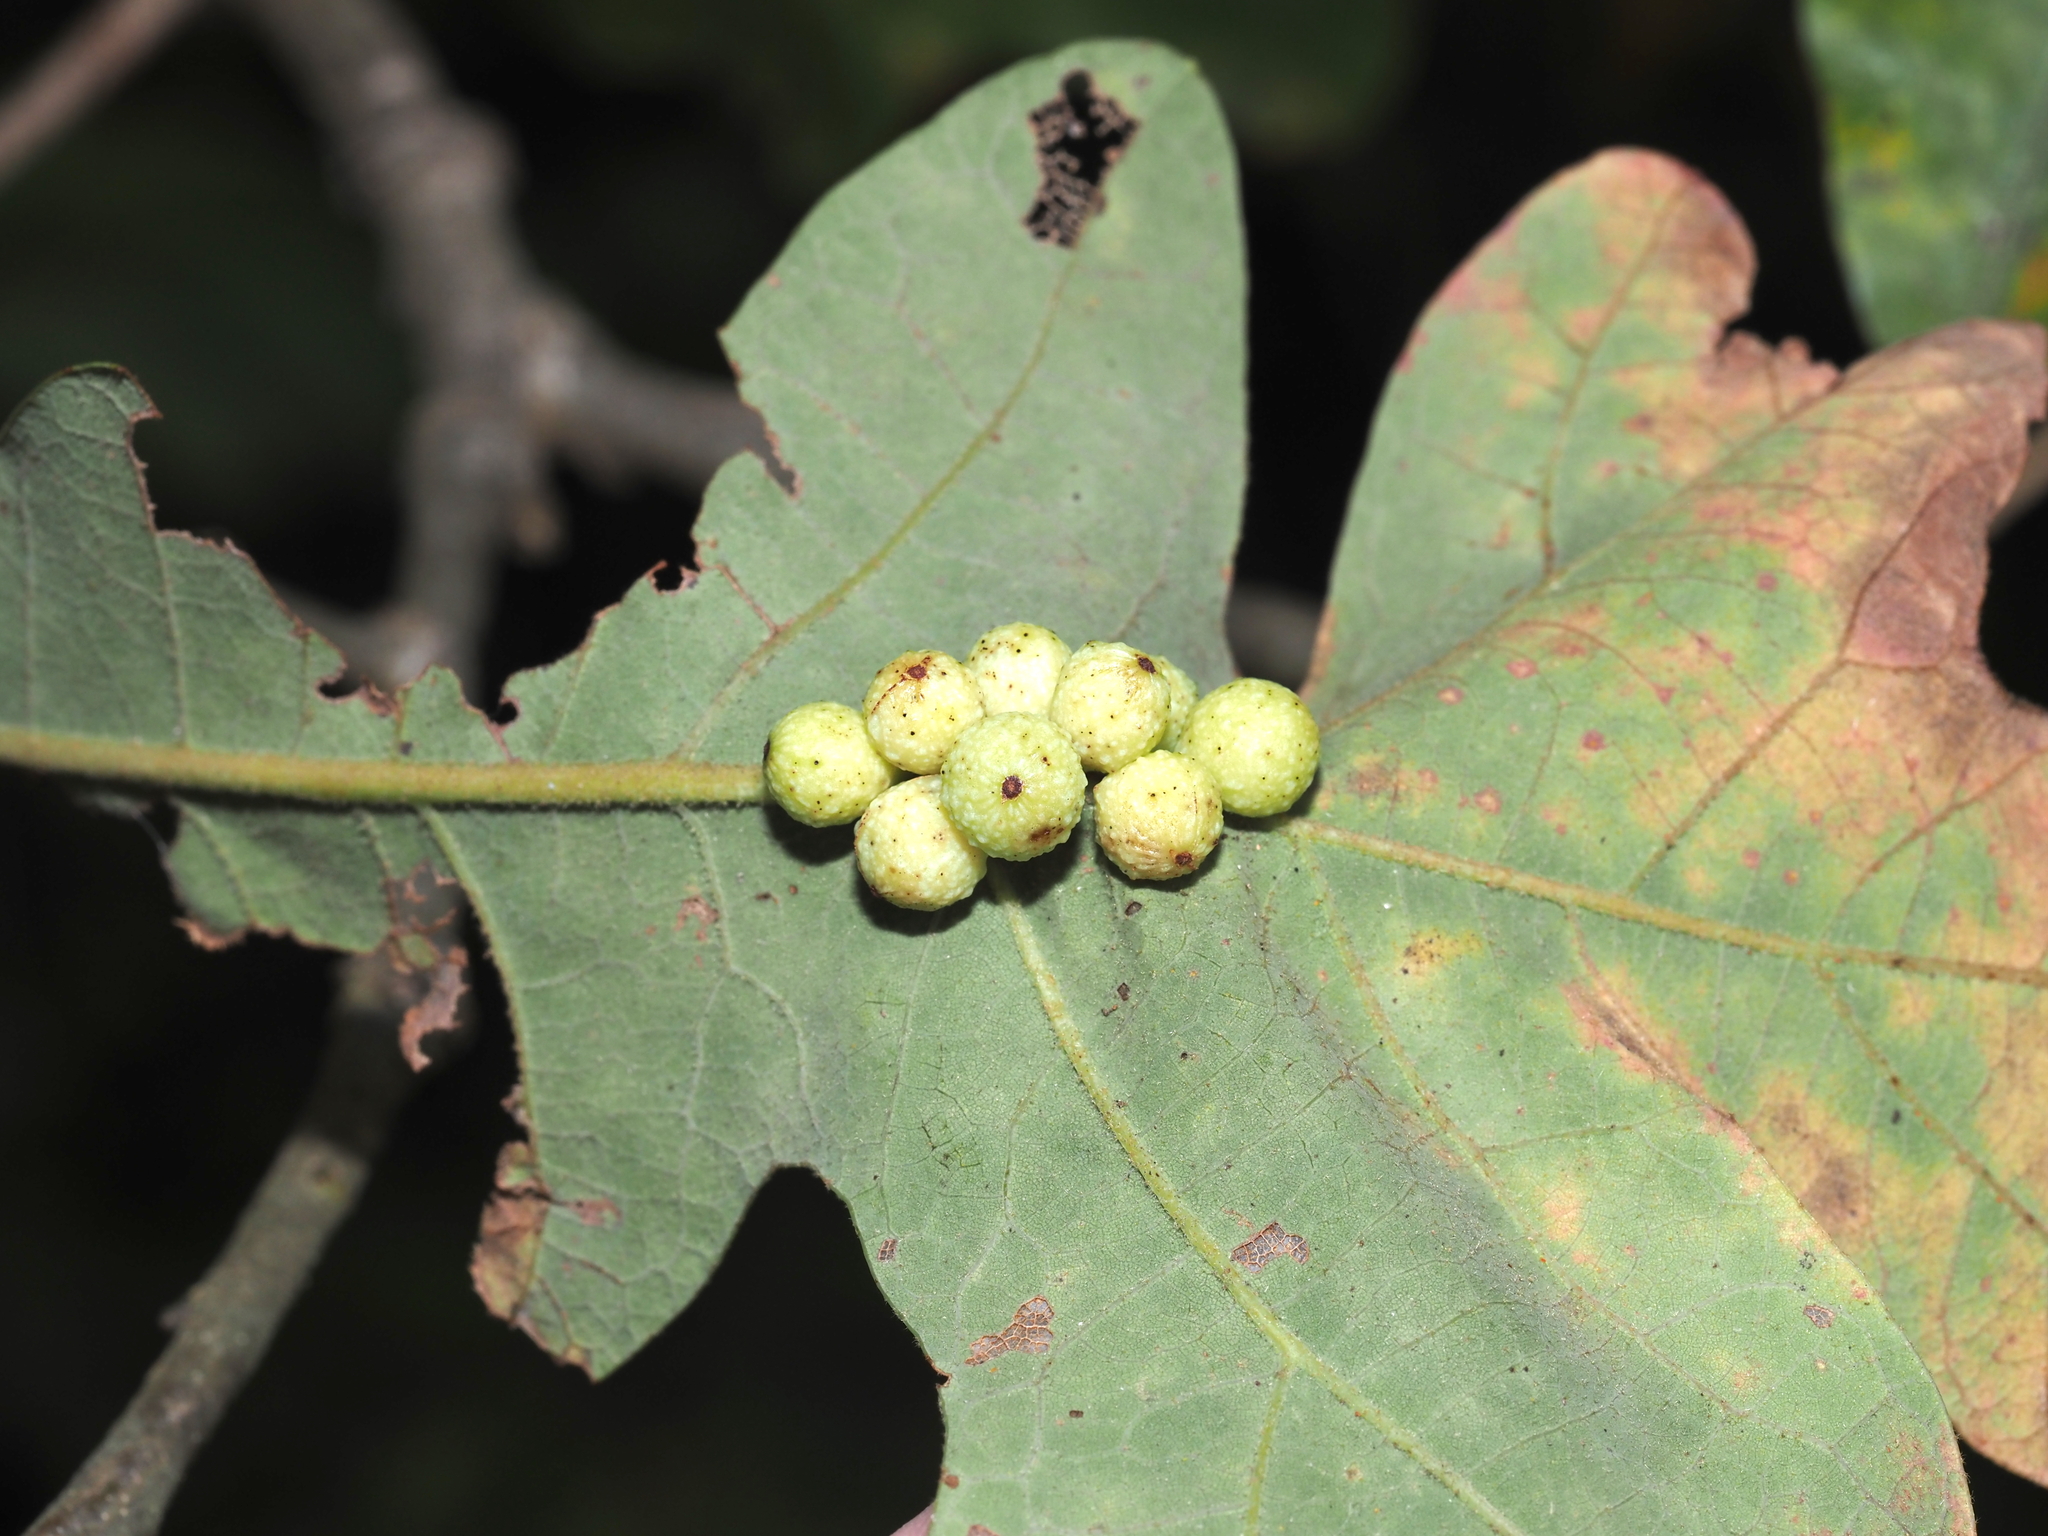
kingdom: Animalia
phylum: Arthropoda
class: Insecta
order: Hymenoptera
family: Cynipidae
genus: Andricus
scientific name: Andricus
